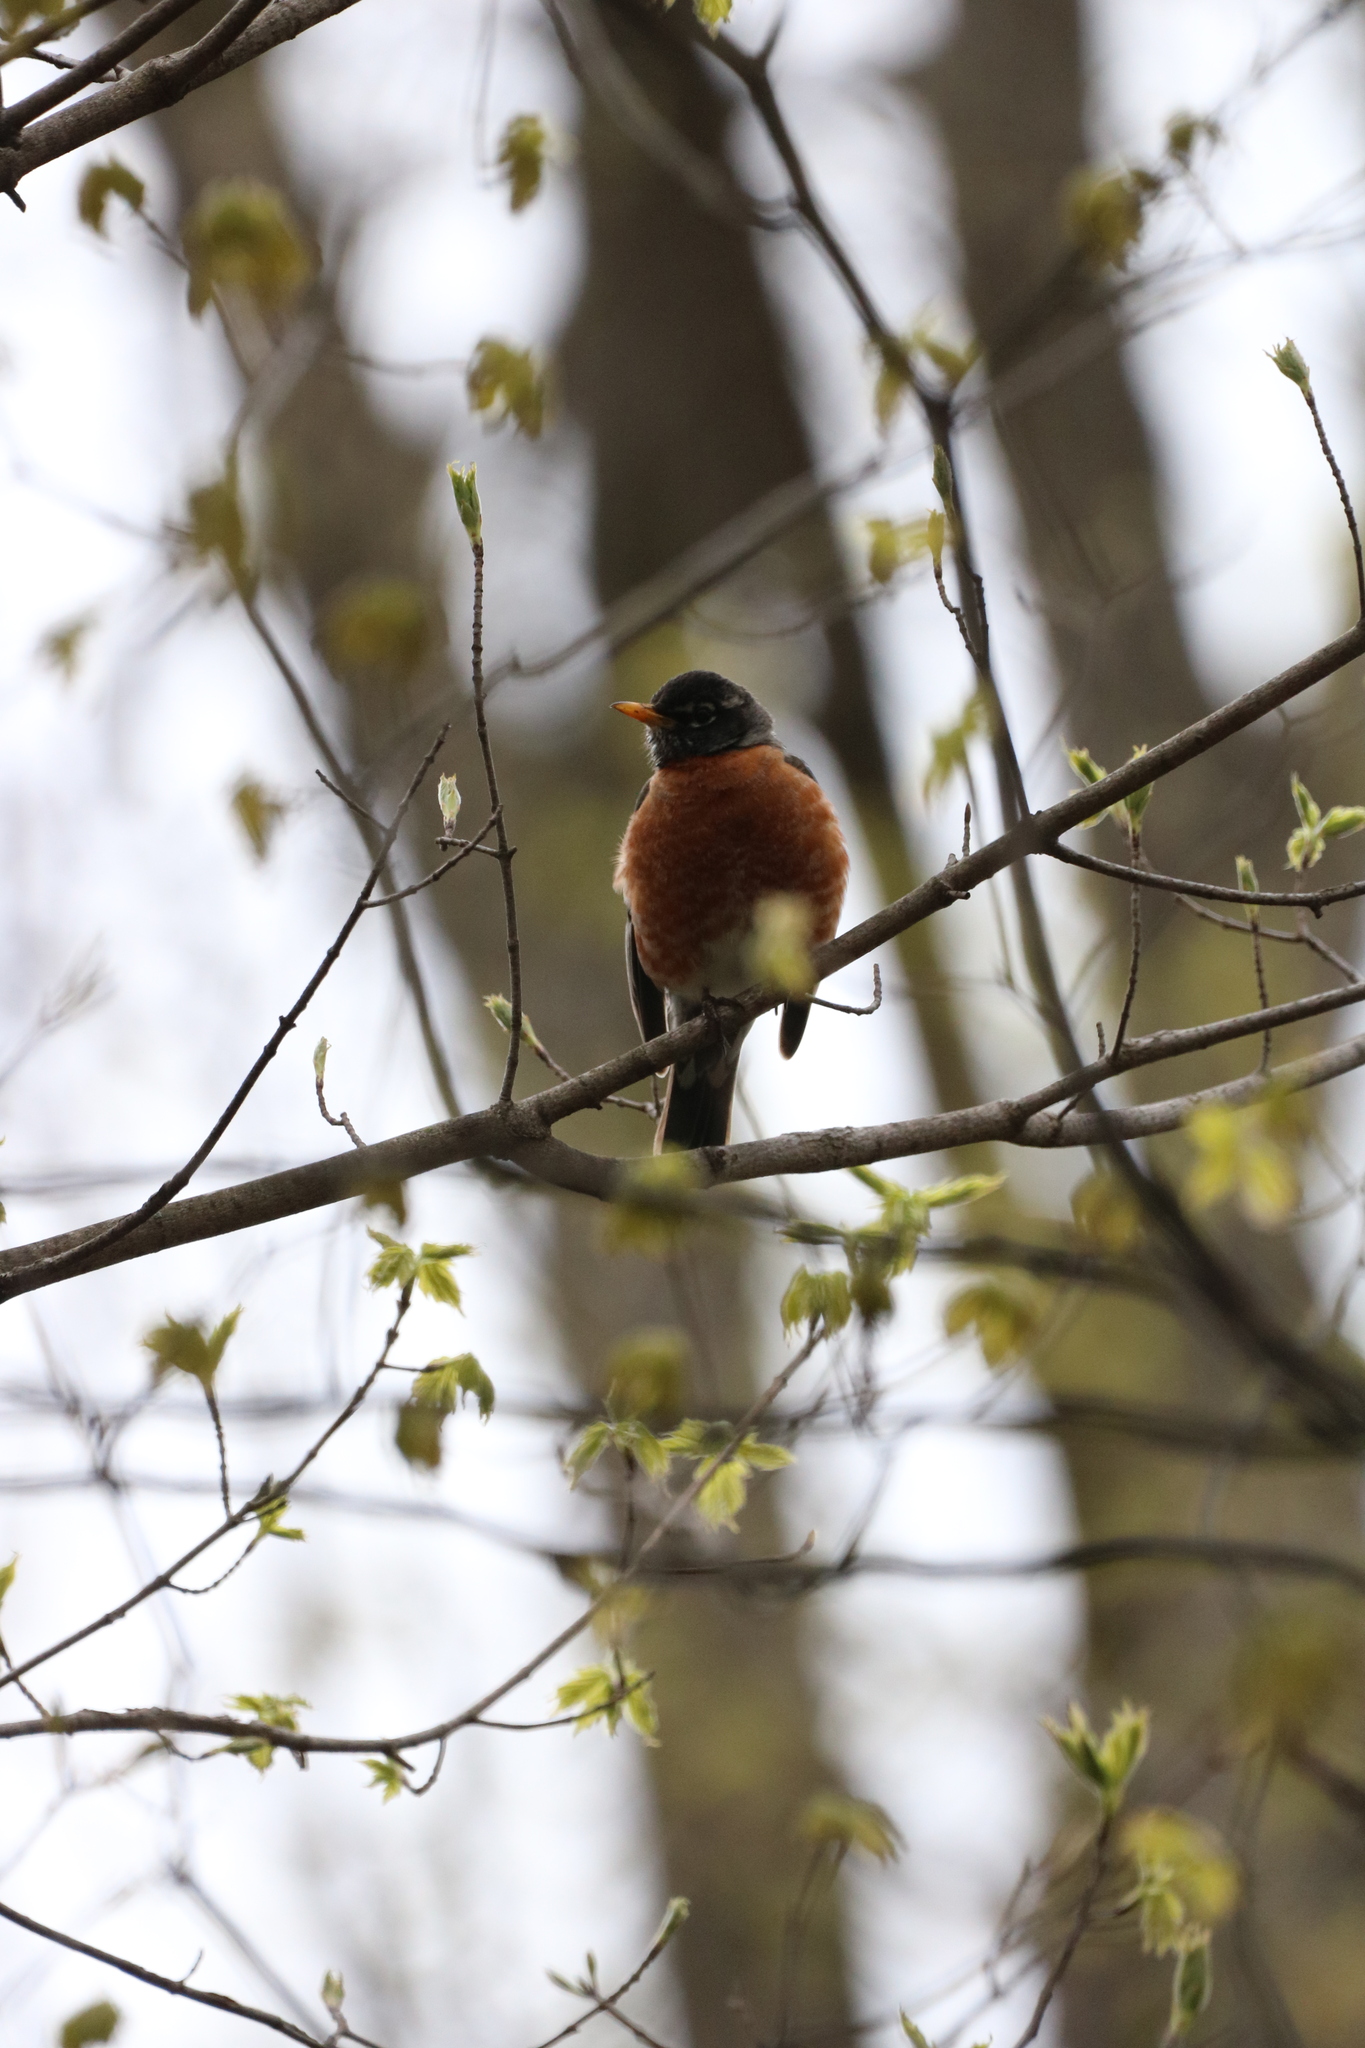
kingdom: Animalia
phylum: Chordata
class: Aves
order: Passeriformes
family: Turdidae
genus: Turdus
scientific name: Turdus migratorius
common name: American robin
